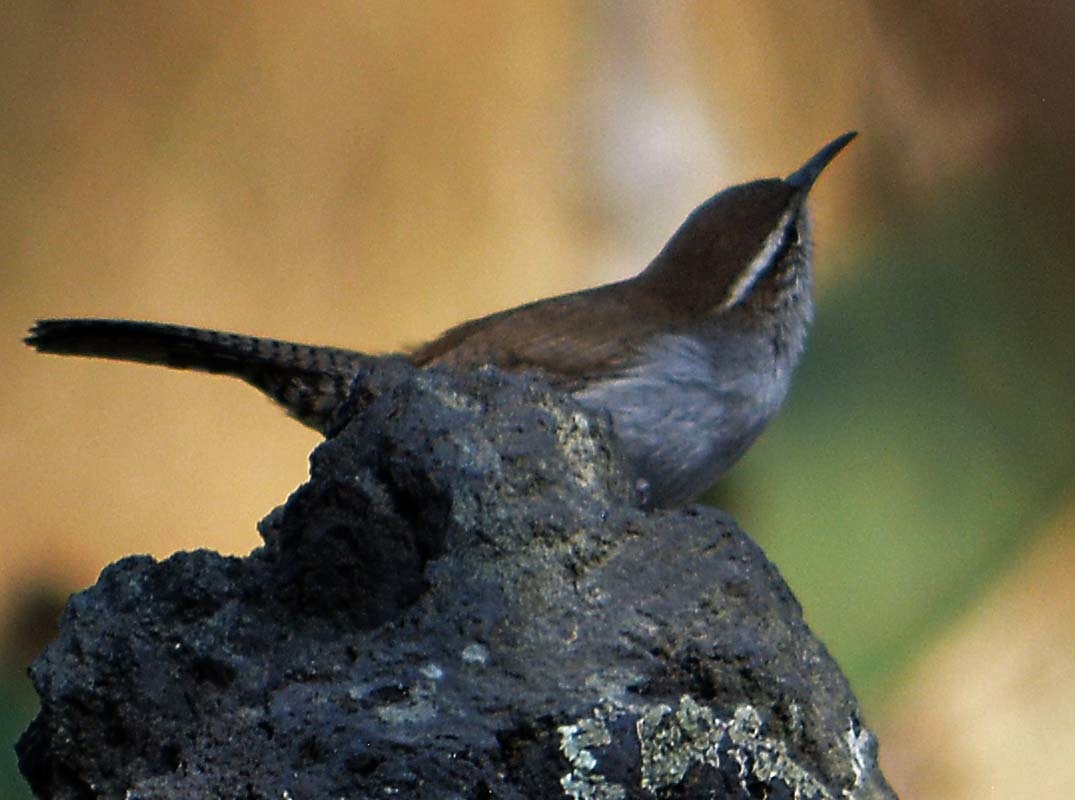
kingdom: Animalia
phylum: Chordata
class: Aves
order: Passeriformes
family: Troglodytidae
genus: Thryomanes
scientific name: Thryomanes bewickii
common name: Bewick's wren
